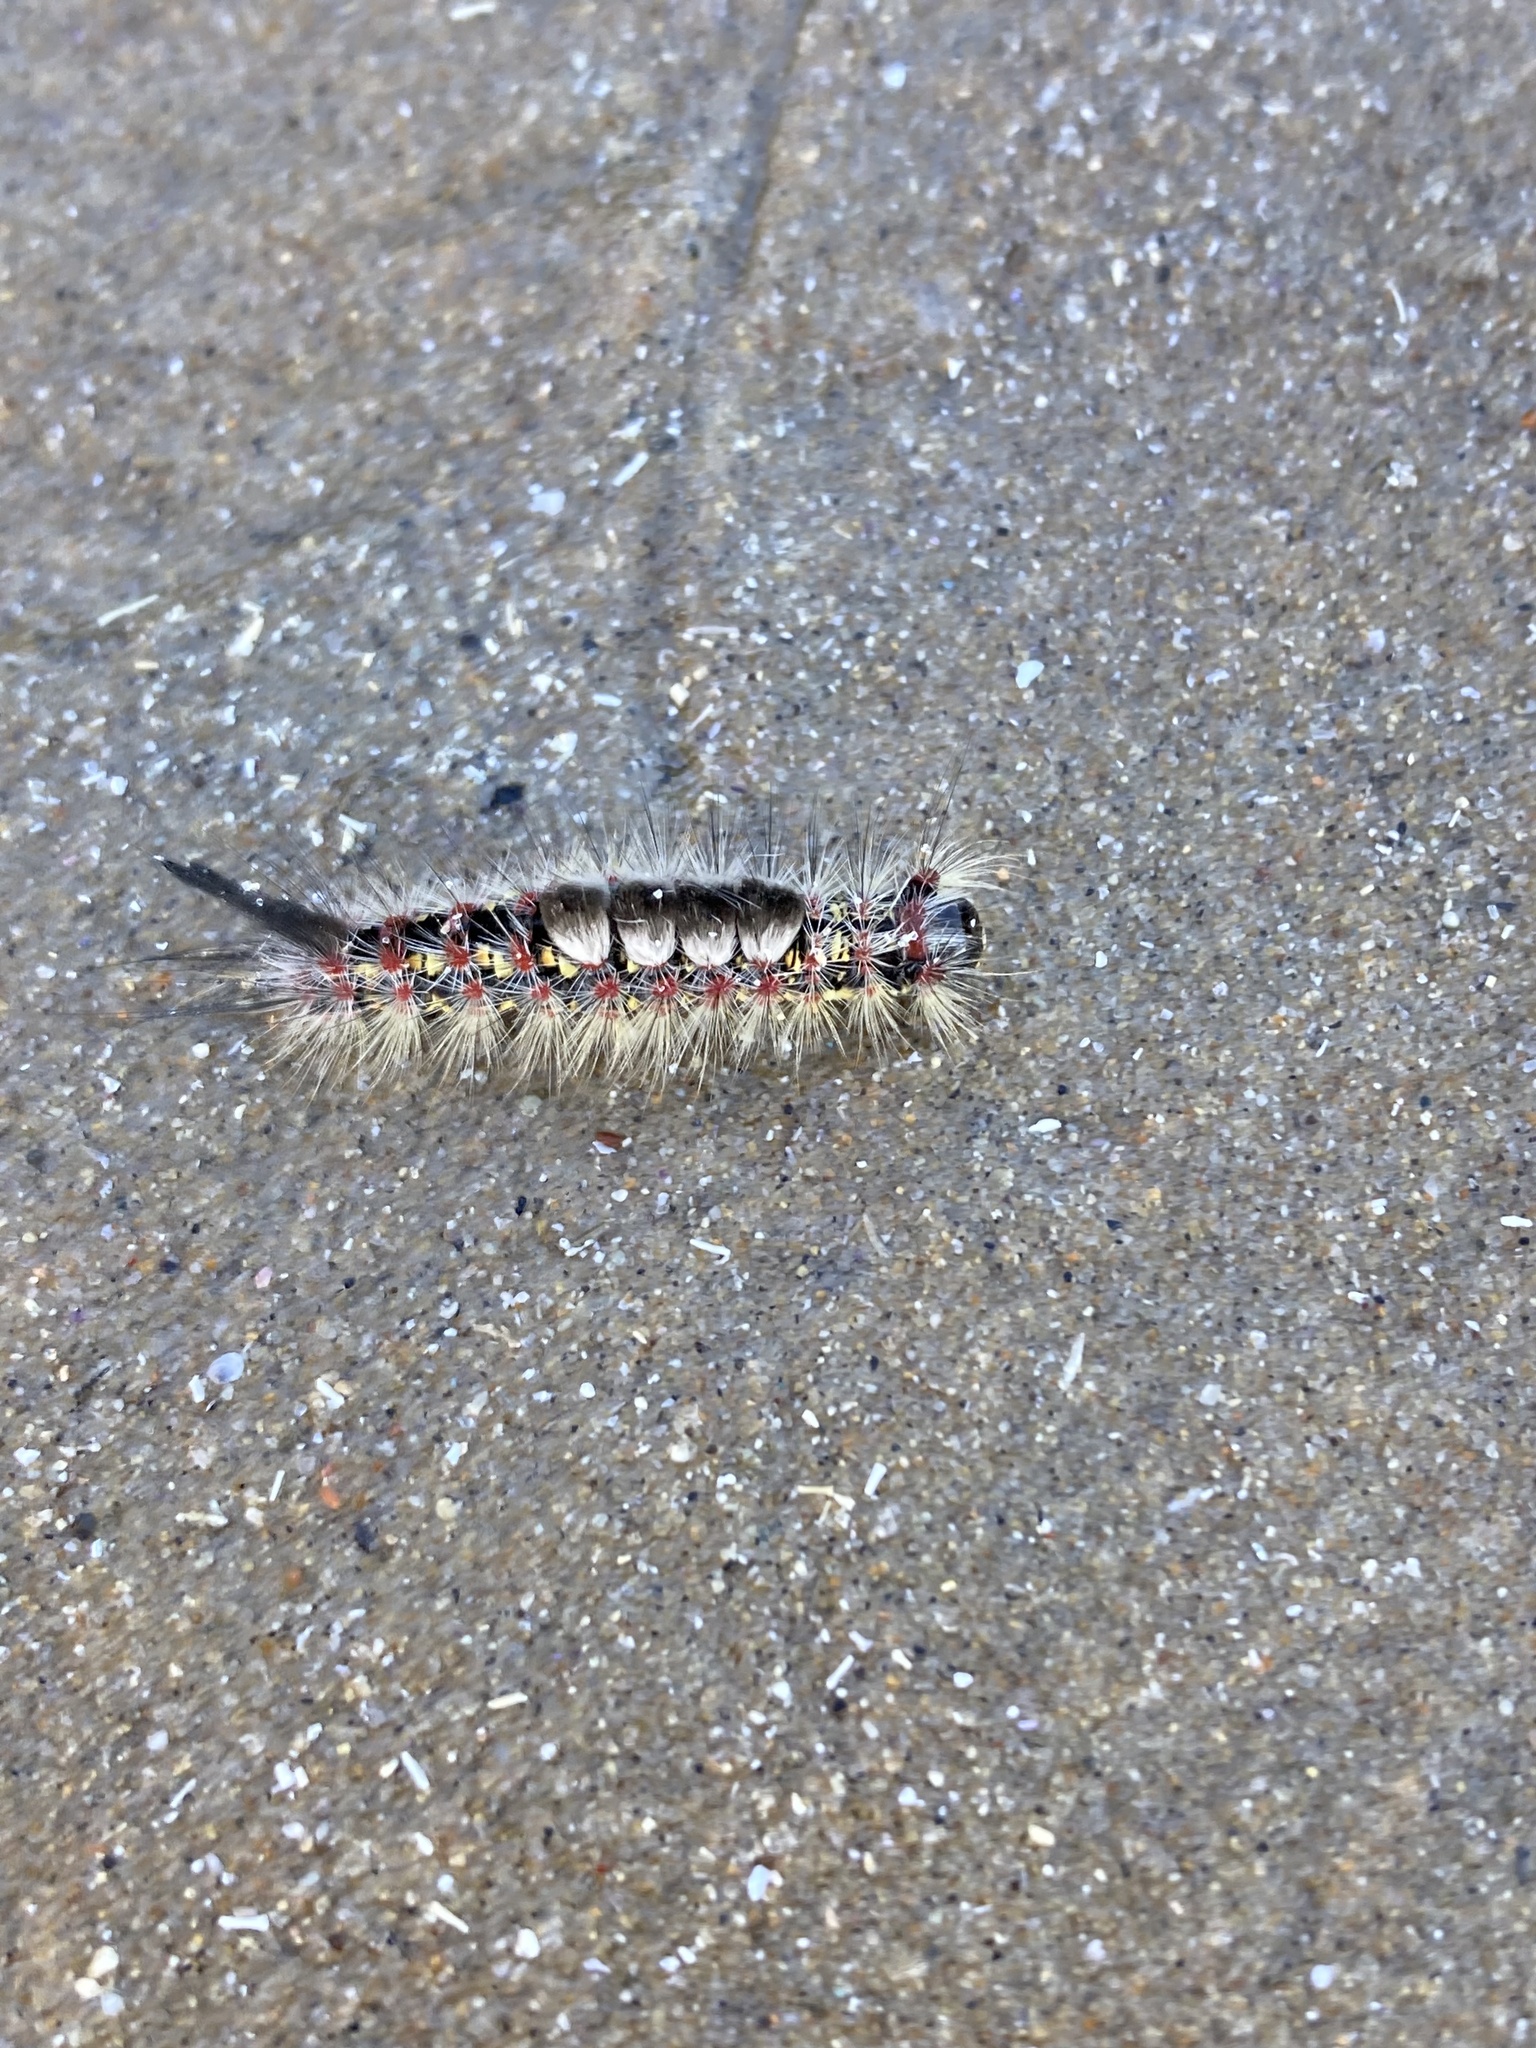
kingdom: Animalia
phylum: Arthropoda
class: Insecta
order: Lepidoptera
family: Erebidae
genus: Orgyia
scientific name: Orgyia vetusta
